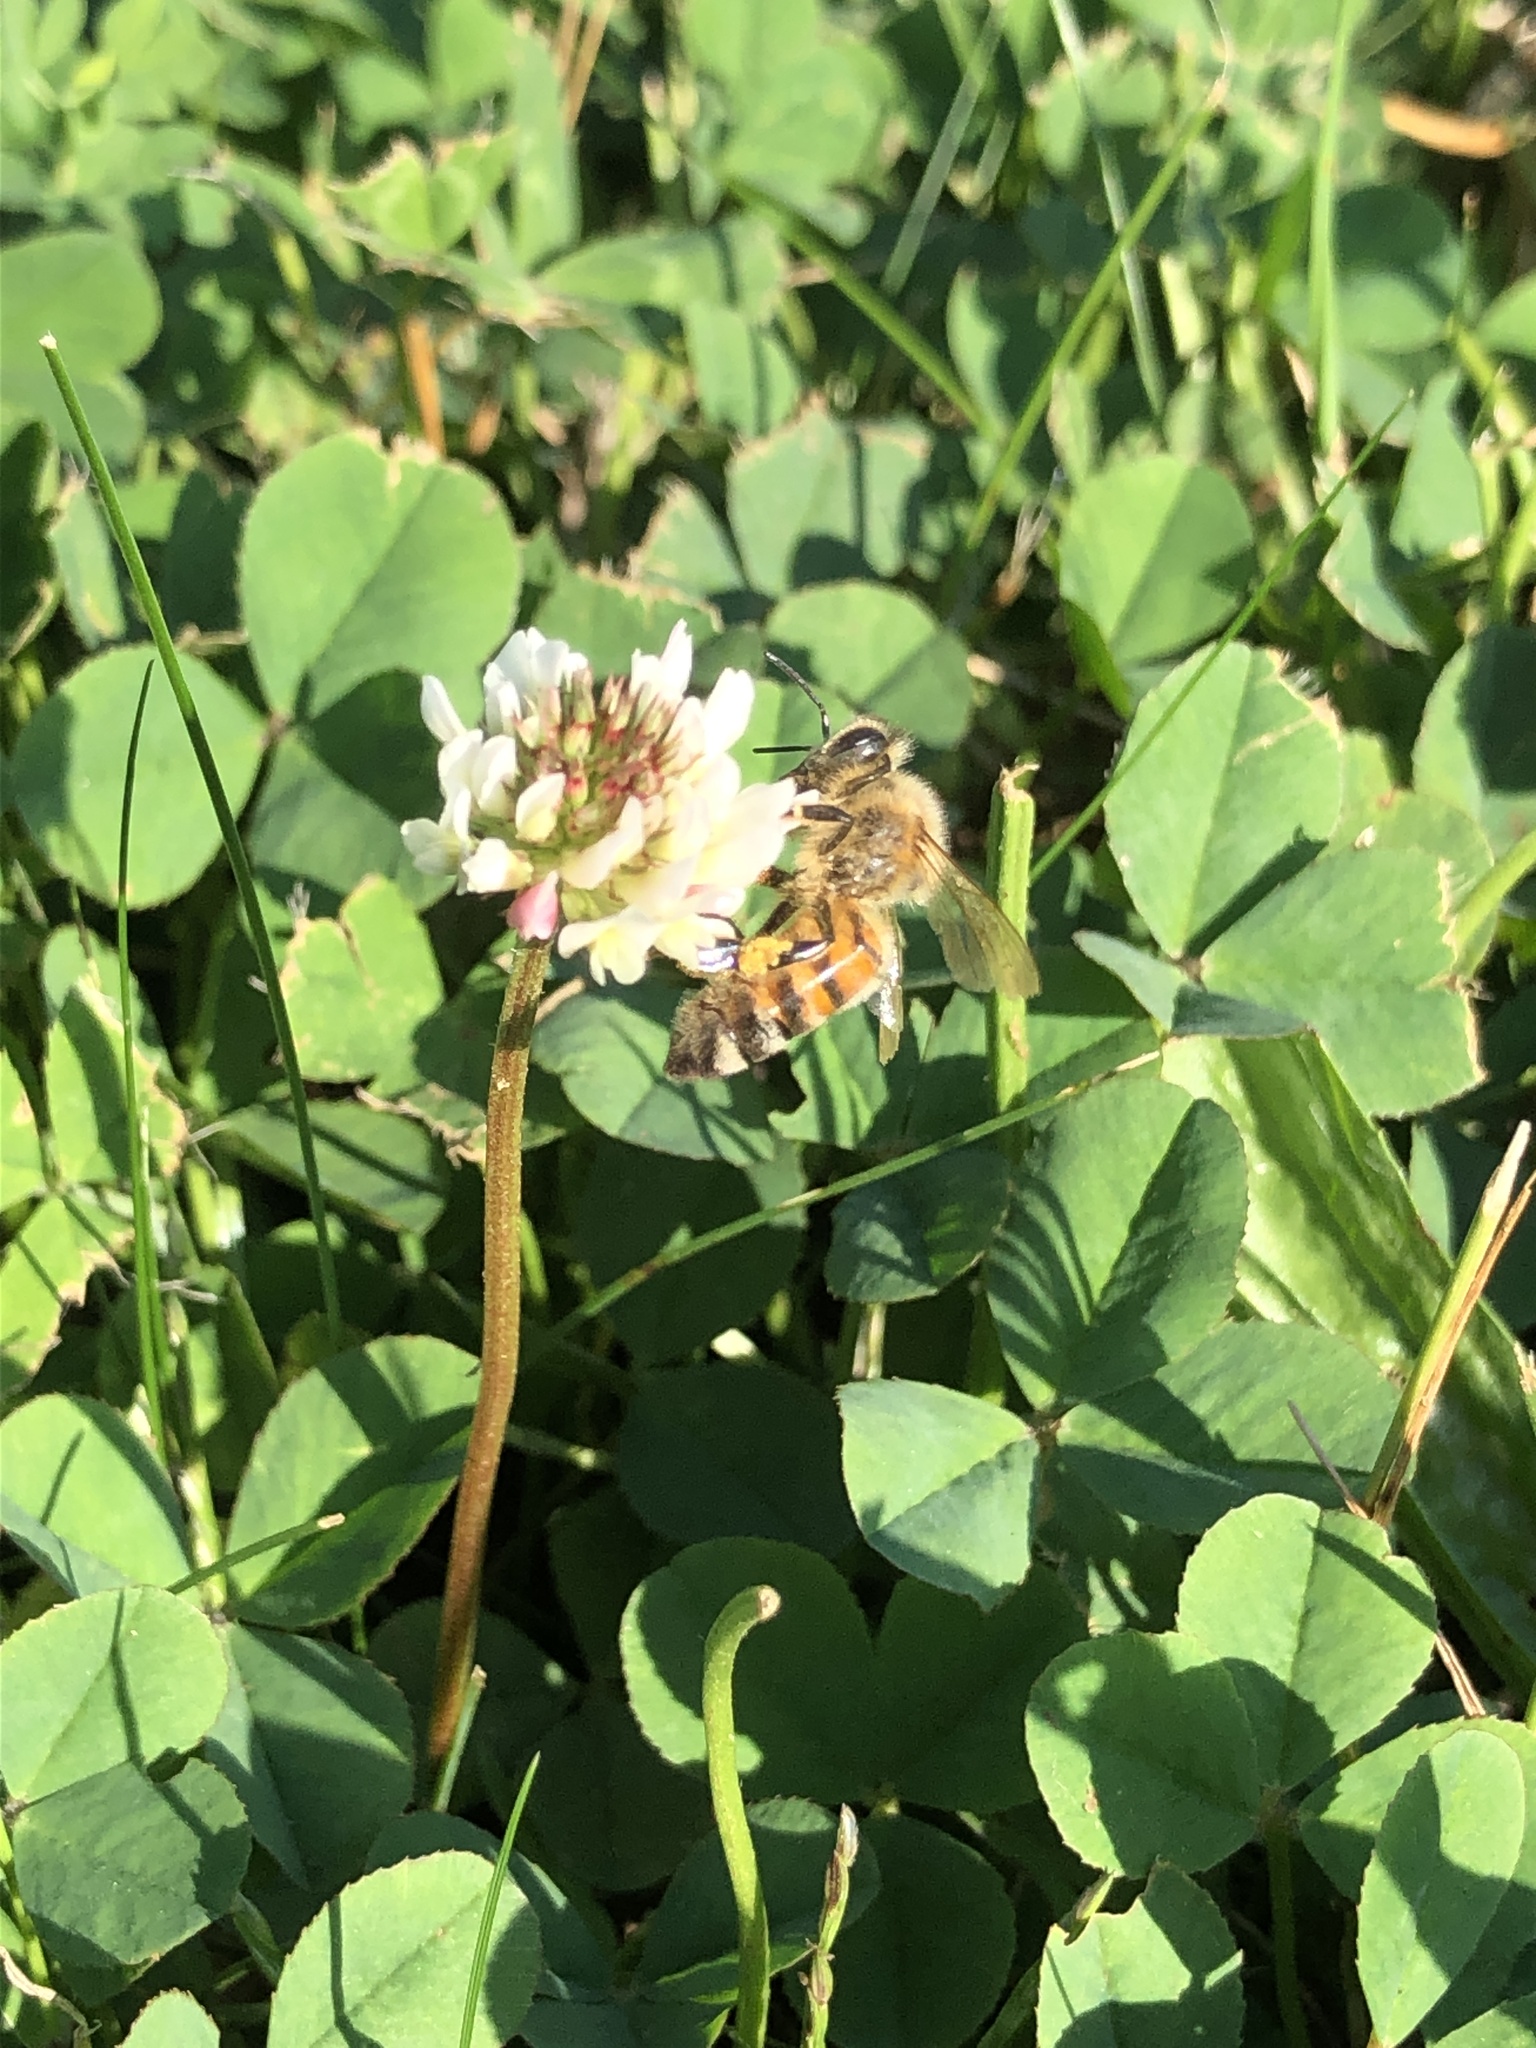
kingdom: Animalia
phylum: Arthropoda
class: Insecta
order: Hymenoptera
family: Apidae
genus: Apis
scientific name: Apis mellifera
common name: Honey bee
